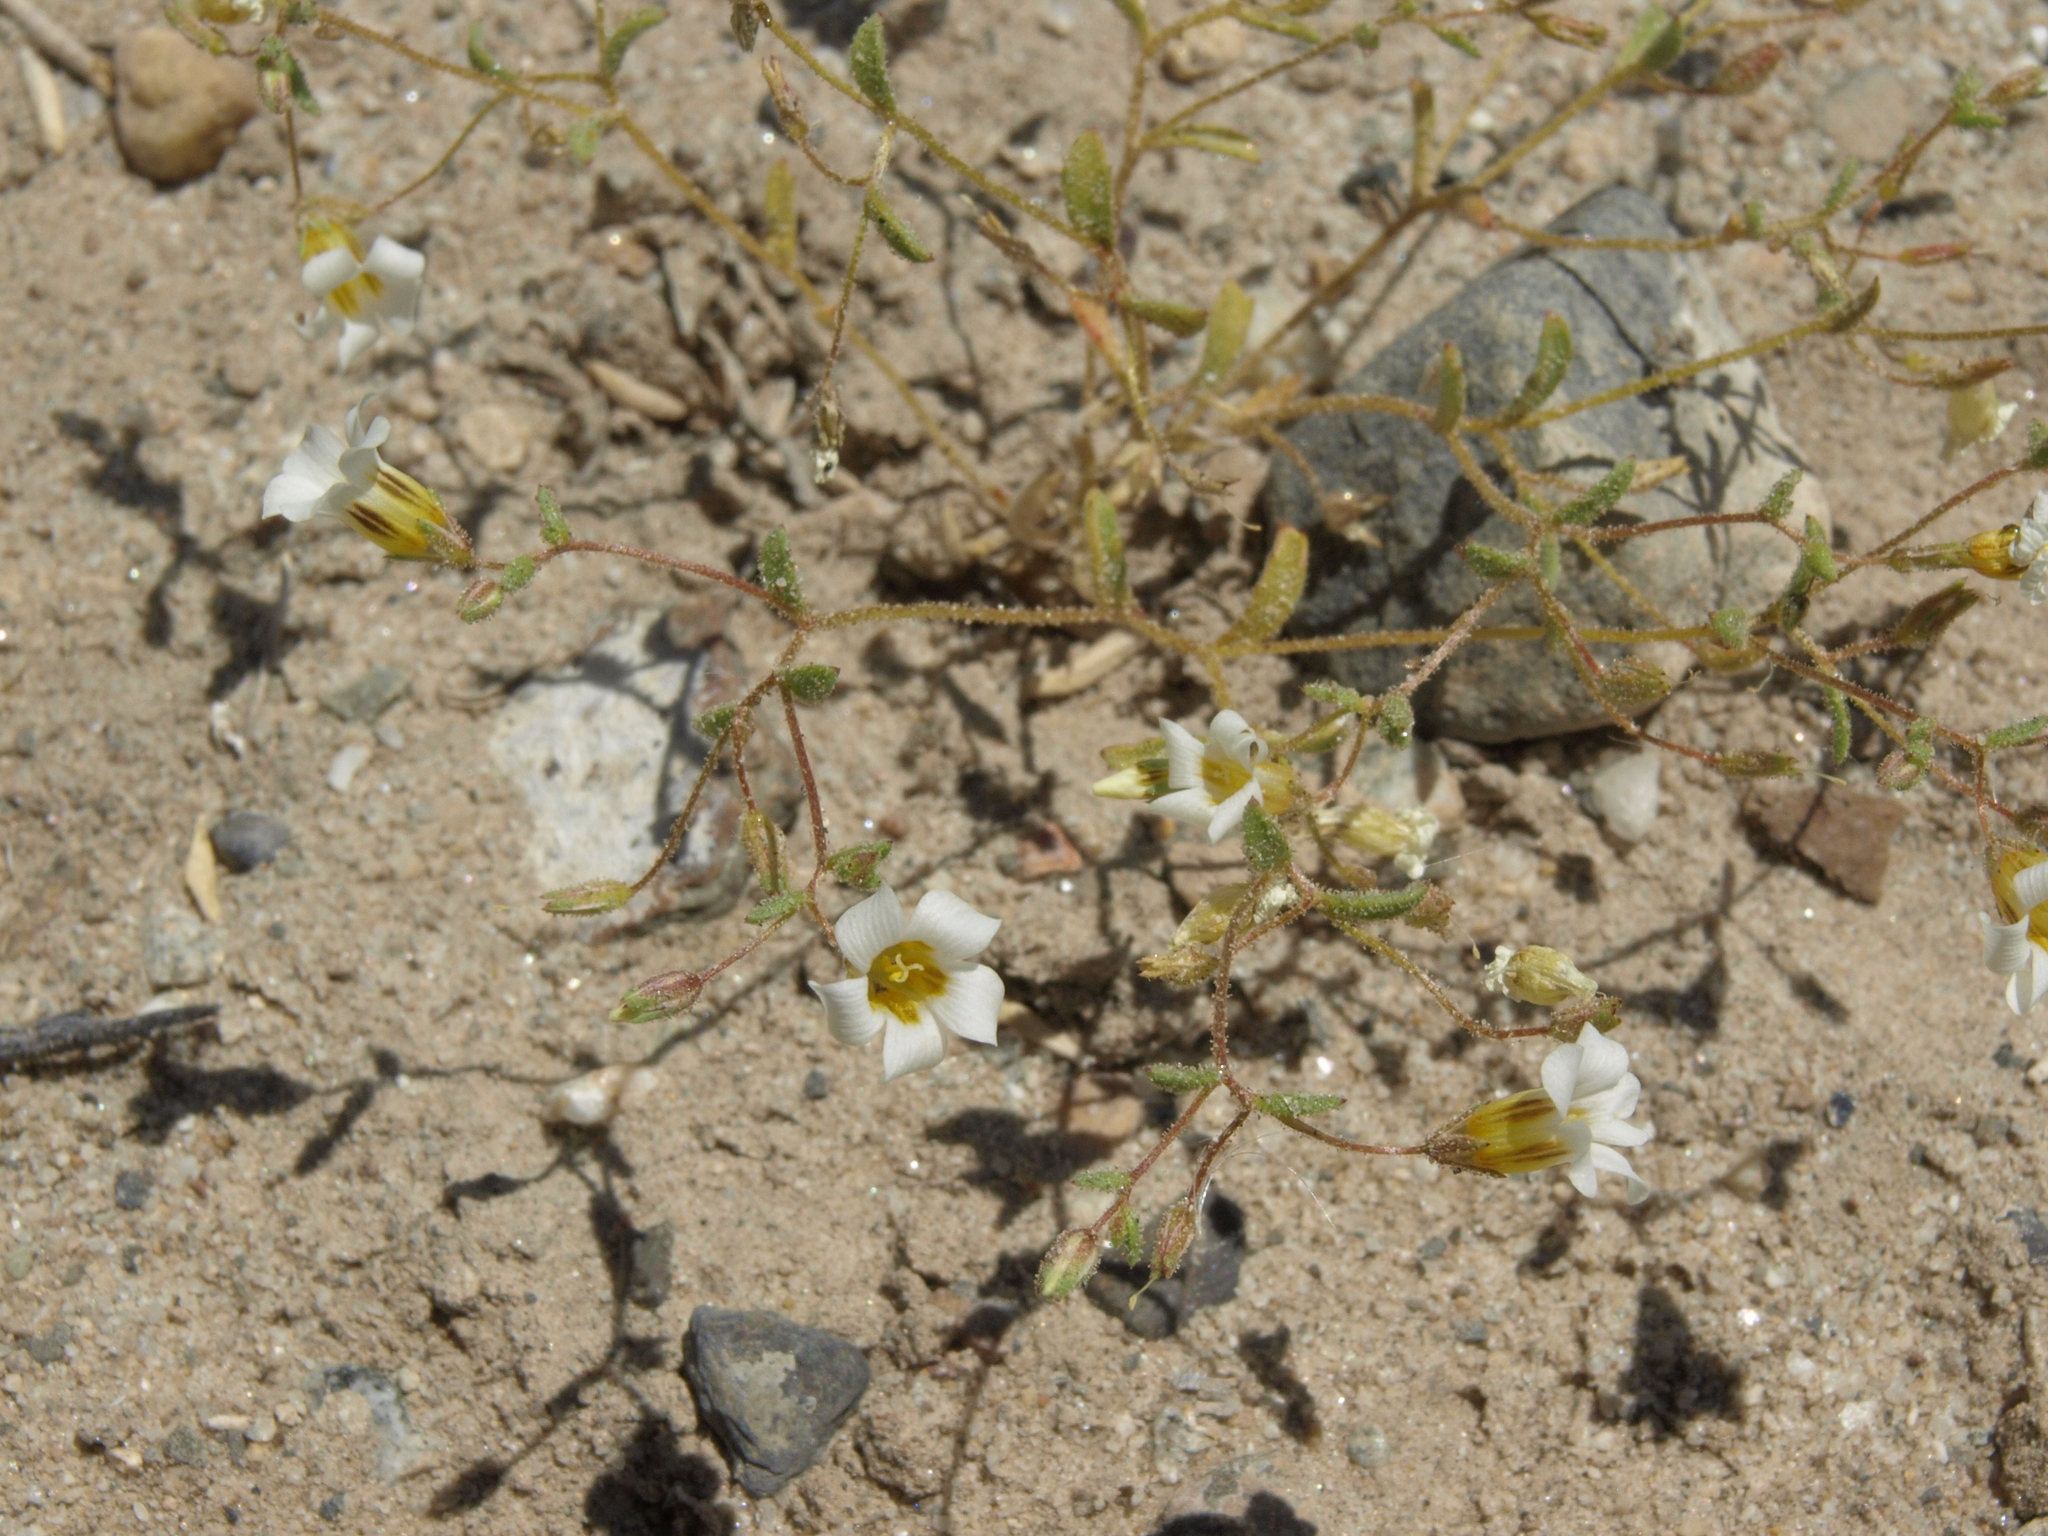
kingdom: Plantae
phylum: Tracheophyta
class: Magnoliopsida
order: Ericales
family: Polemoniaceae
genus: Linanthus
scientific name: Linanthus campanulatus
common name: Bellshape gilia
